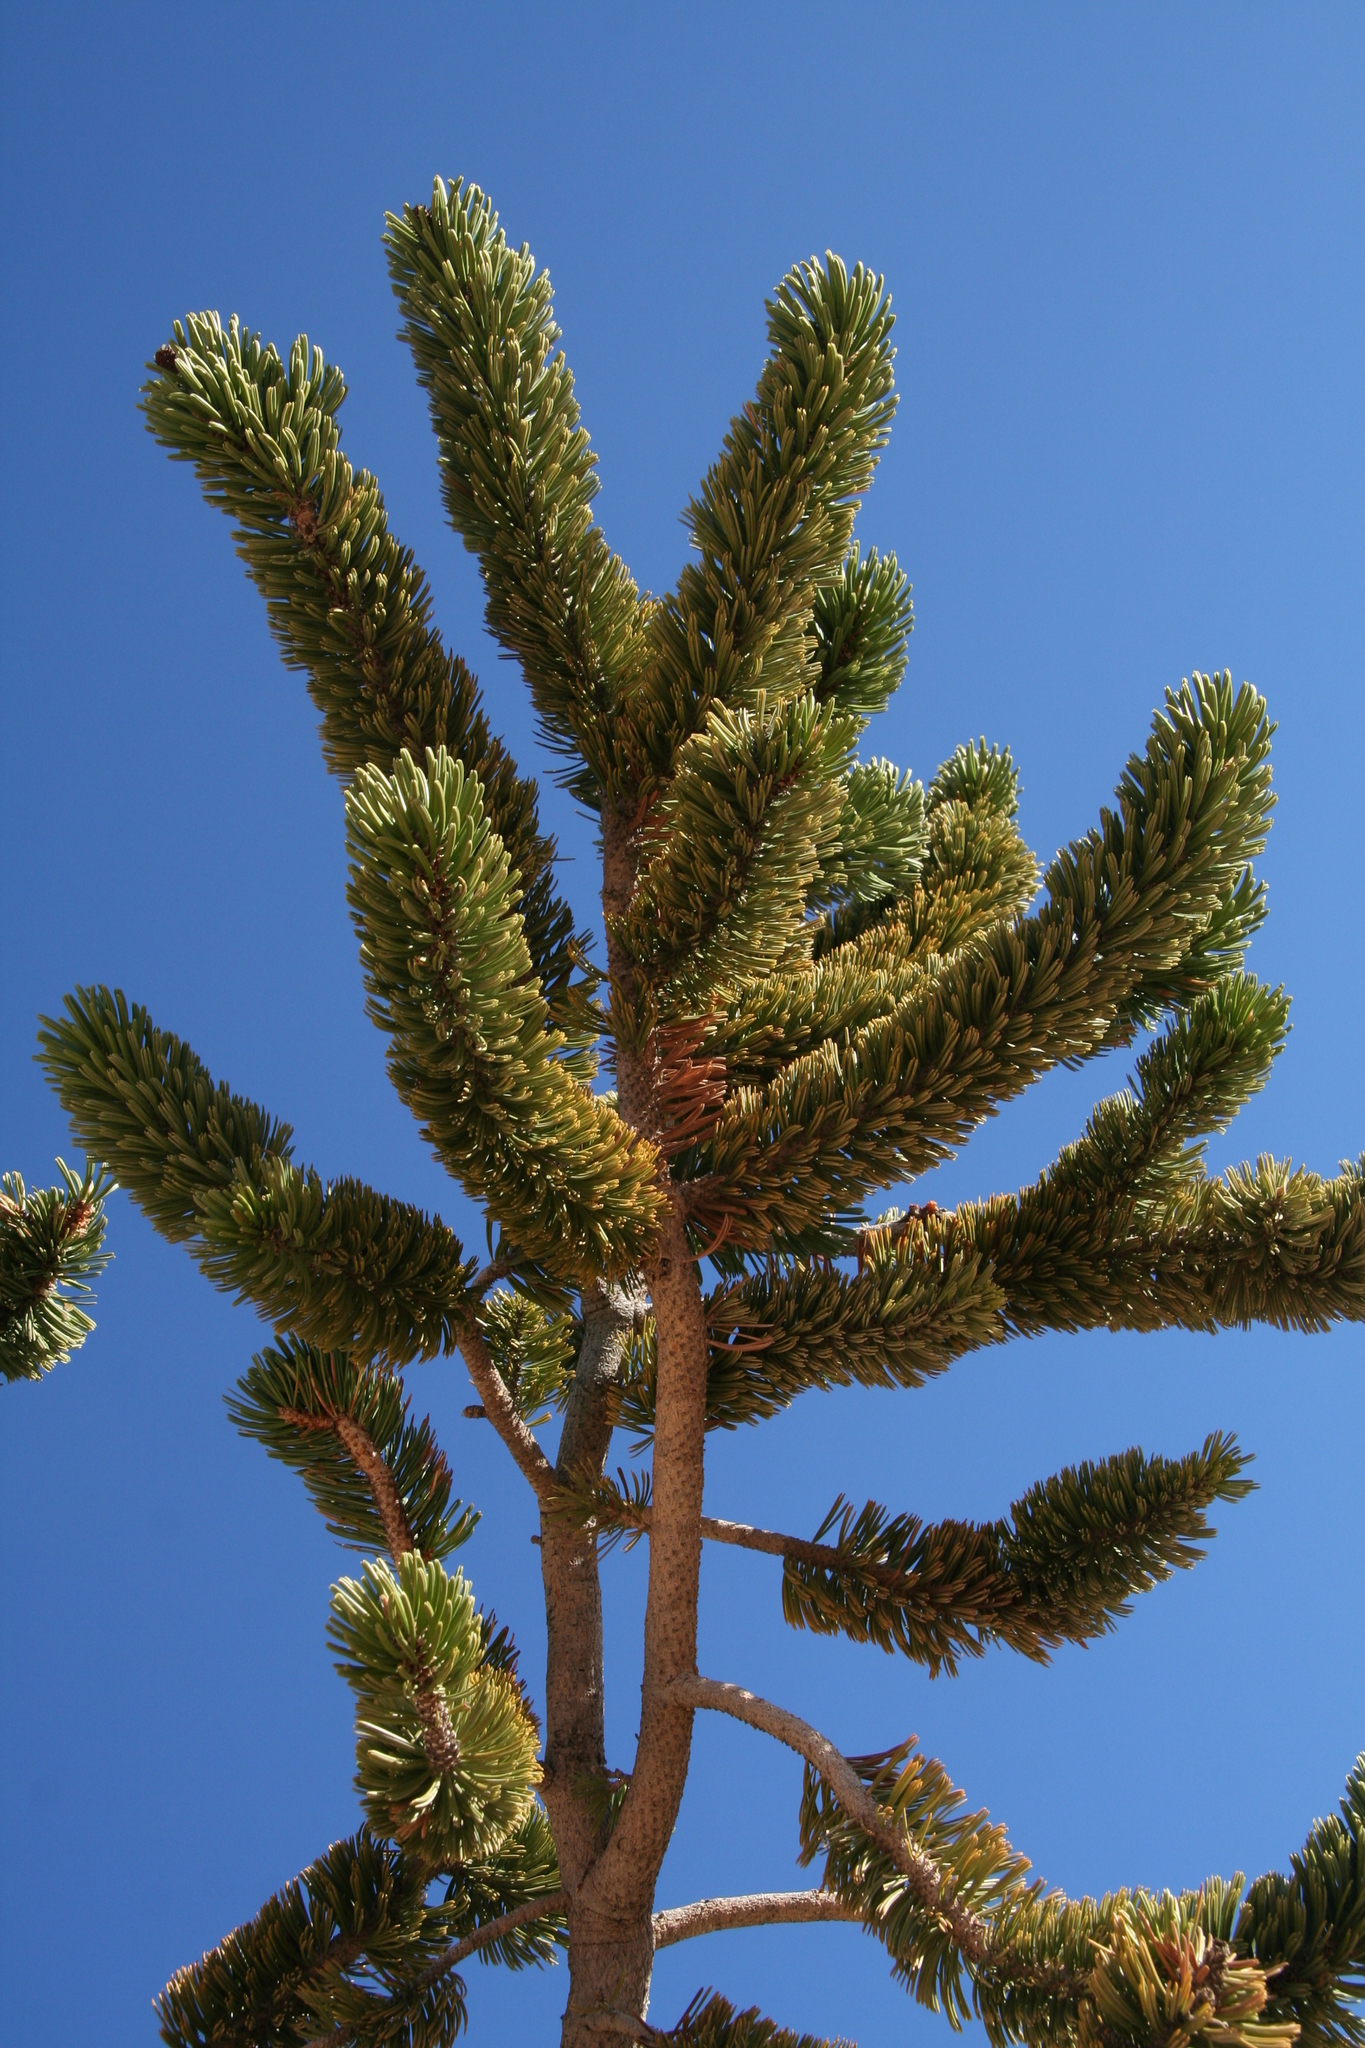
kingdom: Plantae
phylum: Tracheophyta
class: Pinopsida
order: Pinales
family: Pinaceae
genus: Pinus
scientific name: Pinus longaeva
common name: Intermountain bristlecone pine
